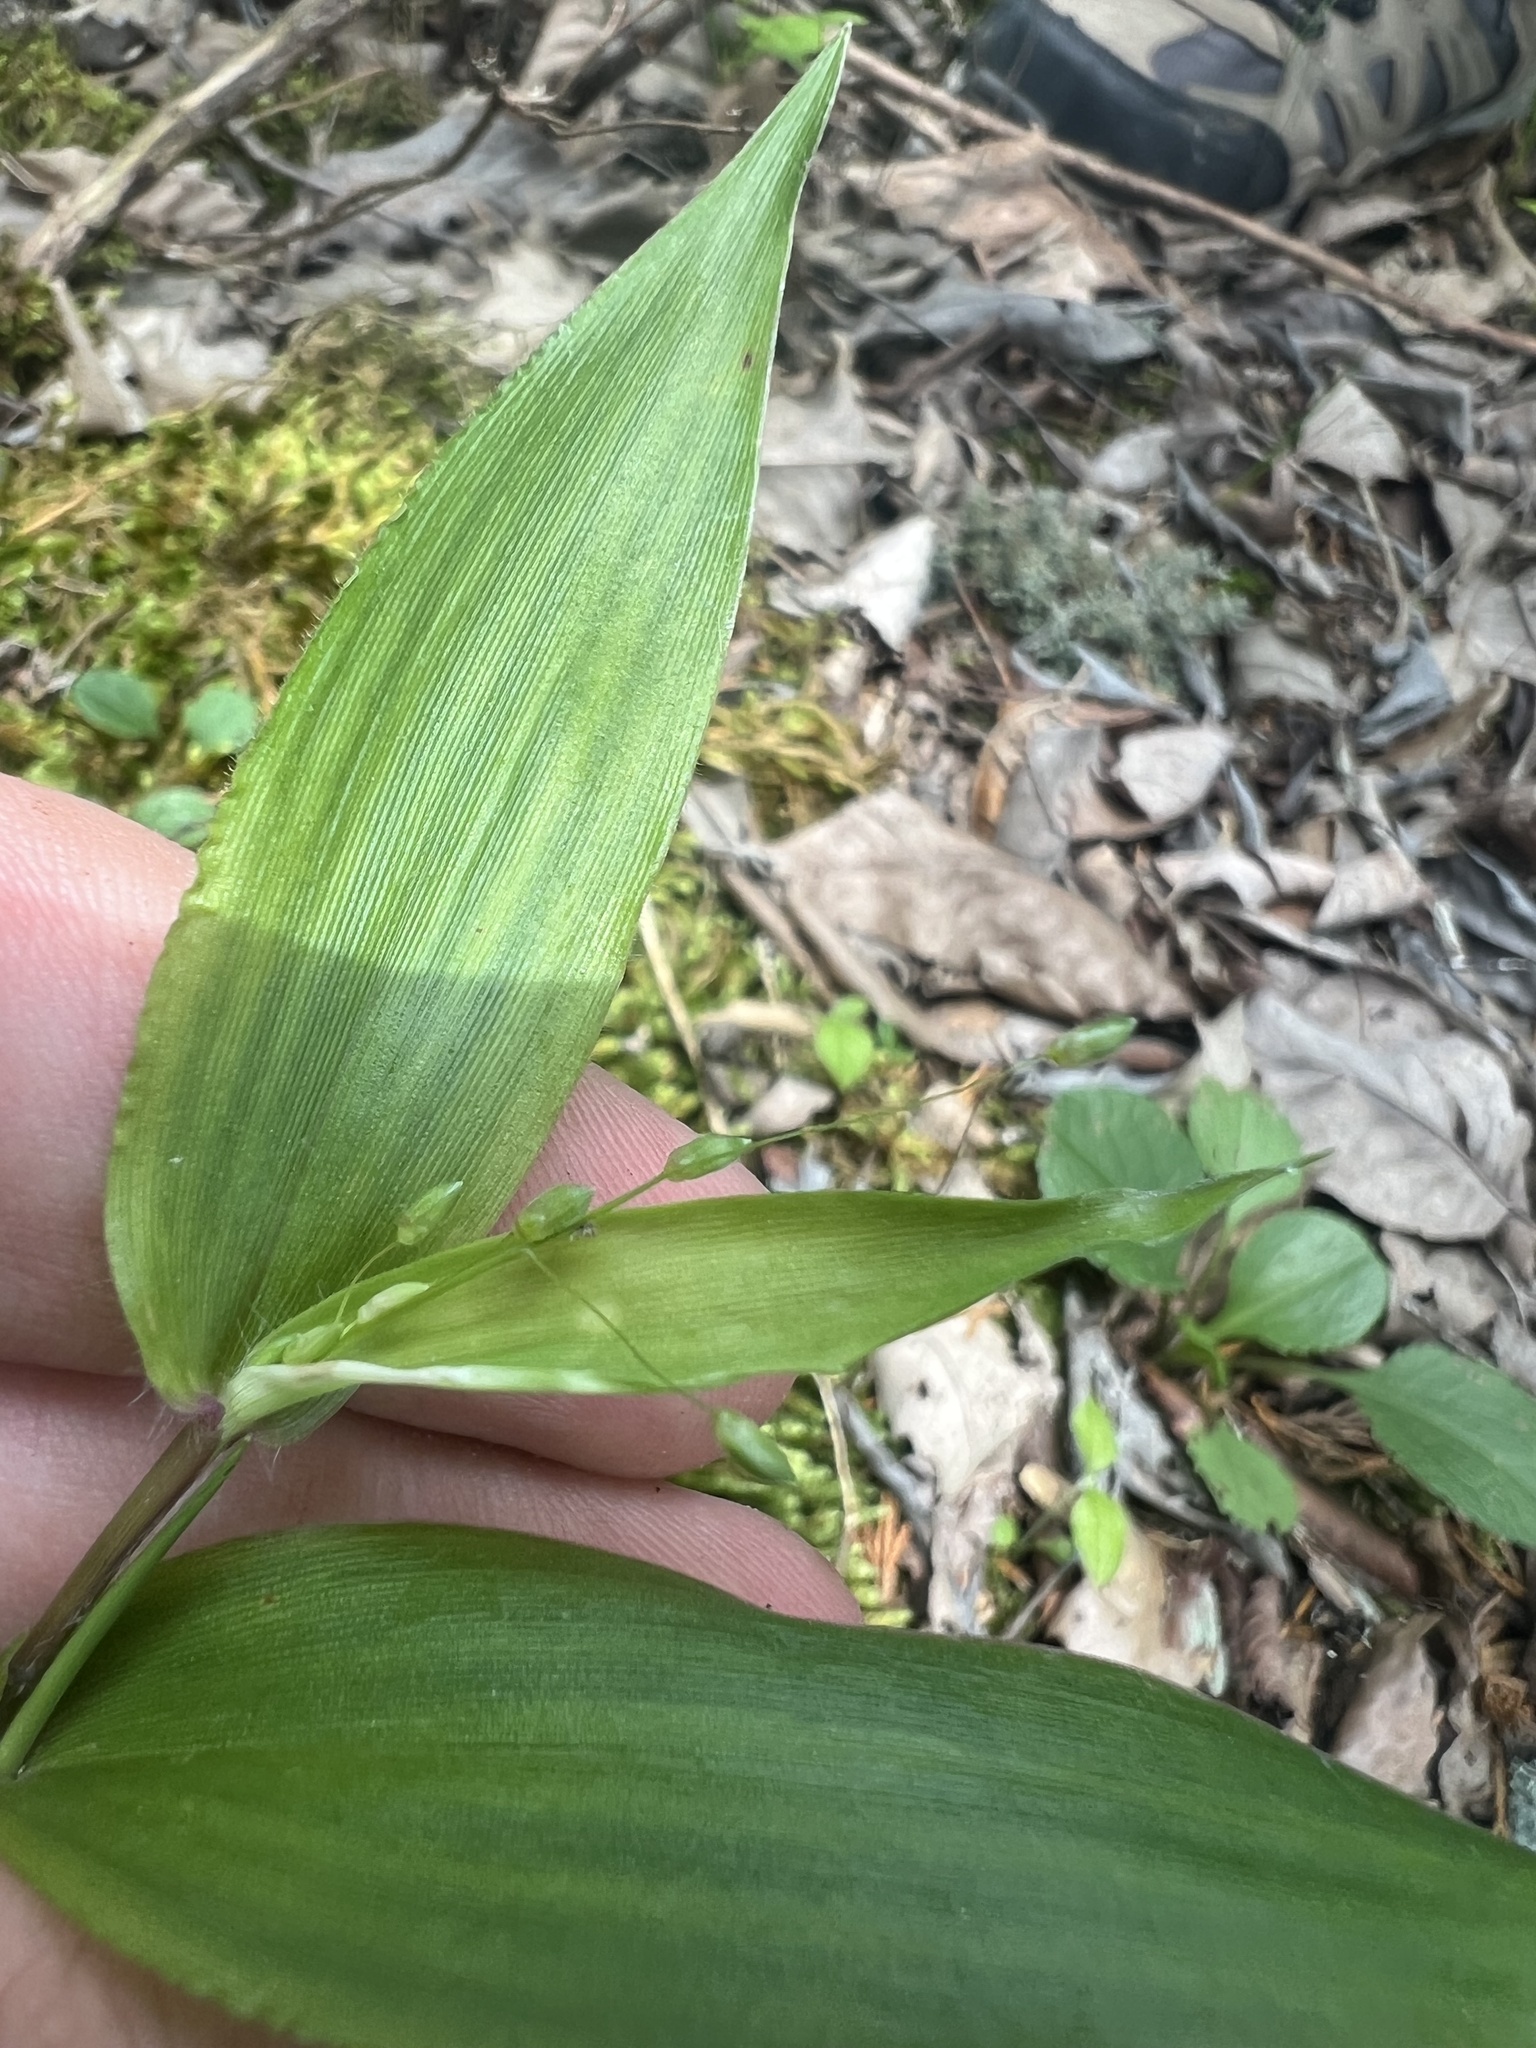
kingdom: Plantae
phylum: Tracheophyta
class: Liliopsida
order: Poales
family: Poaceae
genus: Dichanthelium
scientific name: Dichanthelium boscii
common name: Bosc's panic grass
